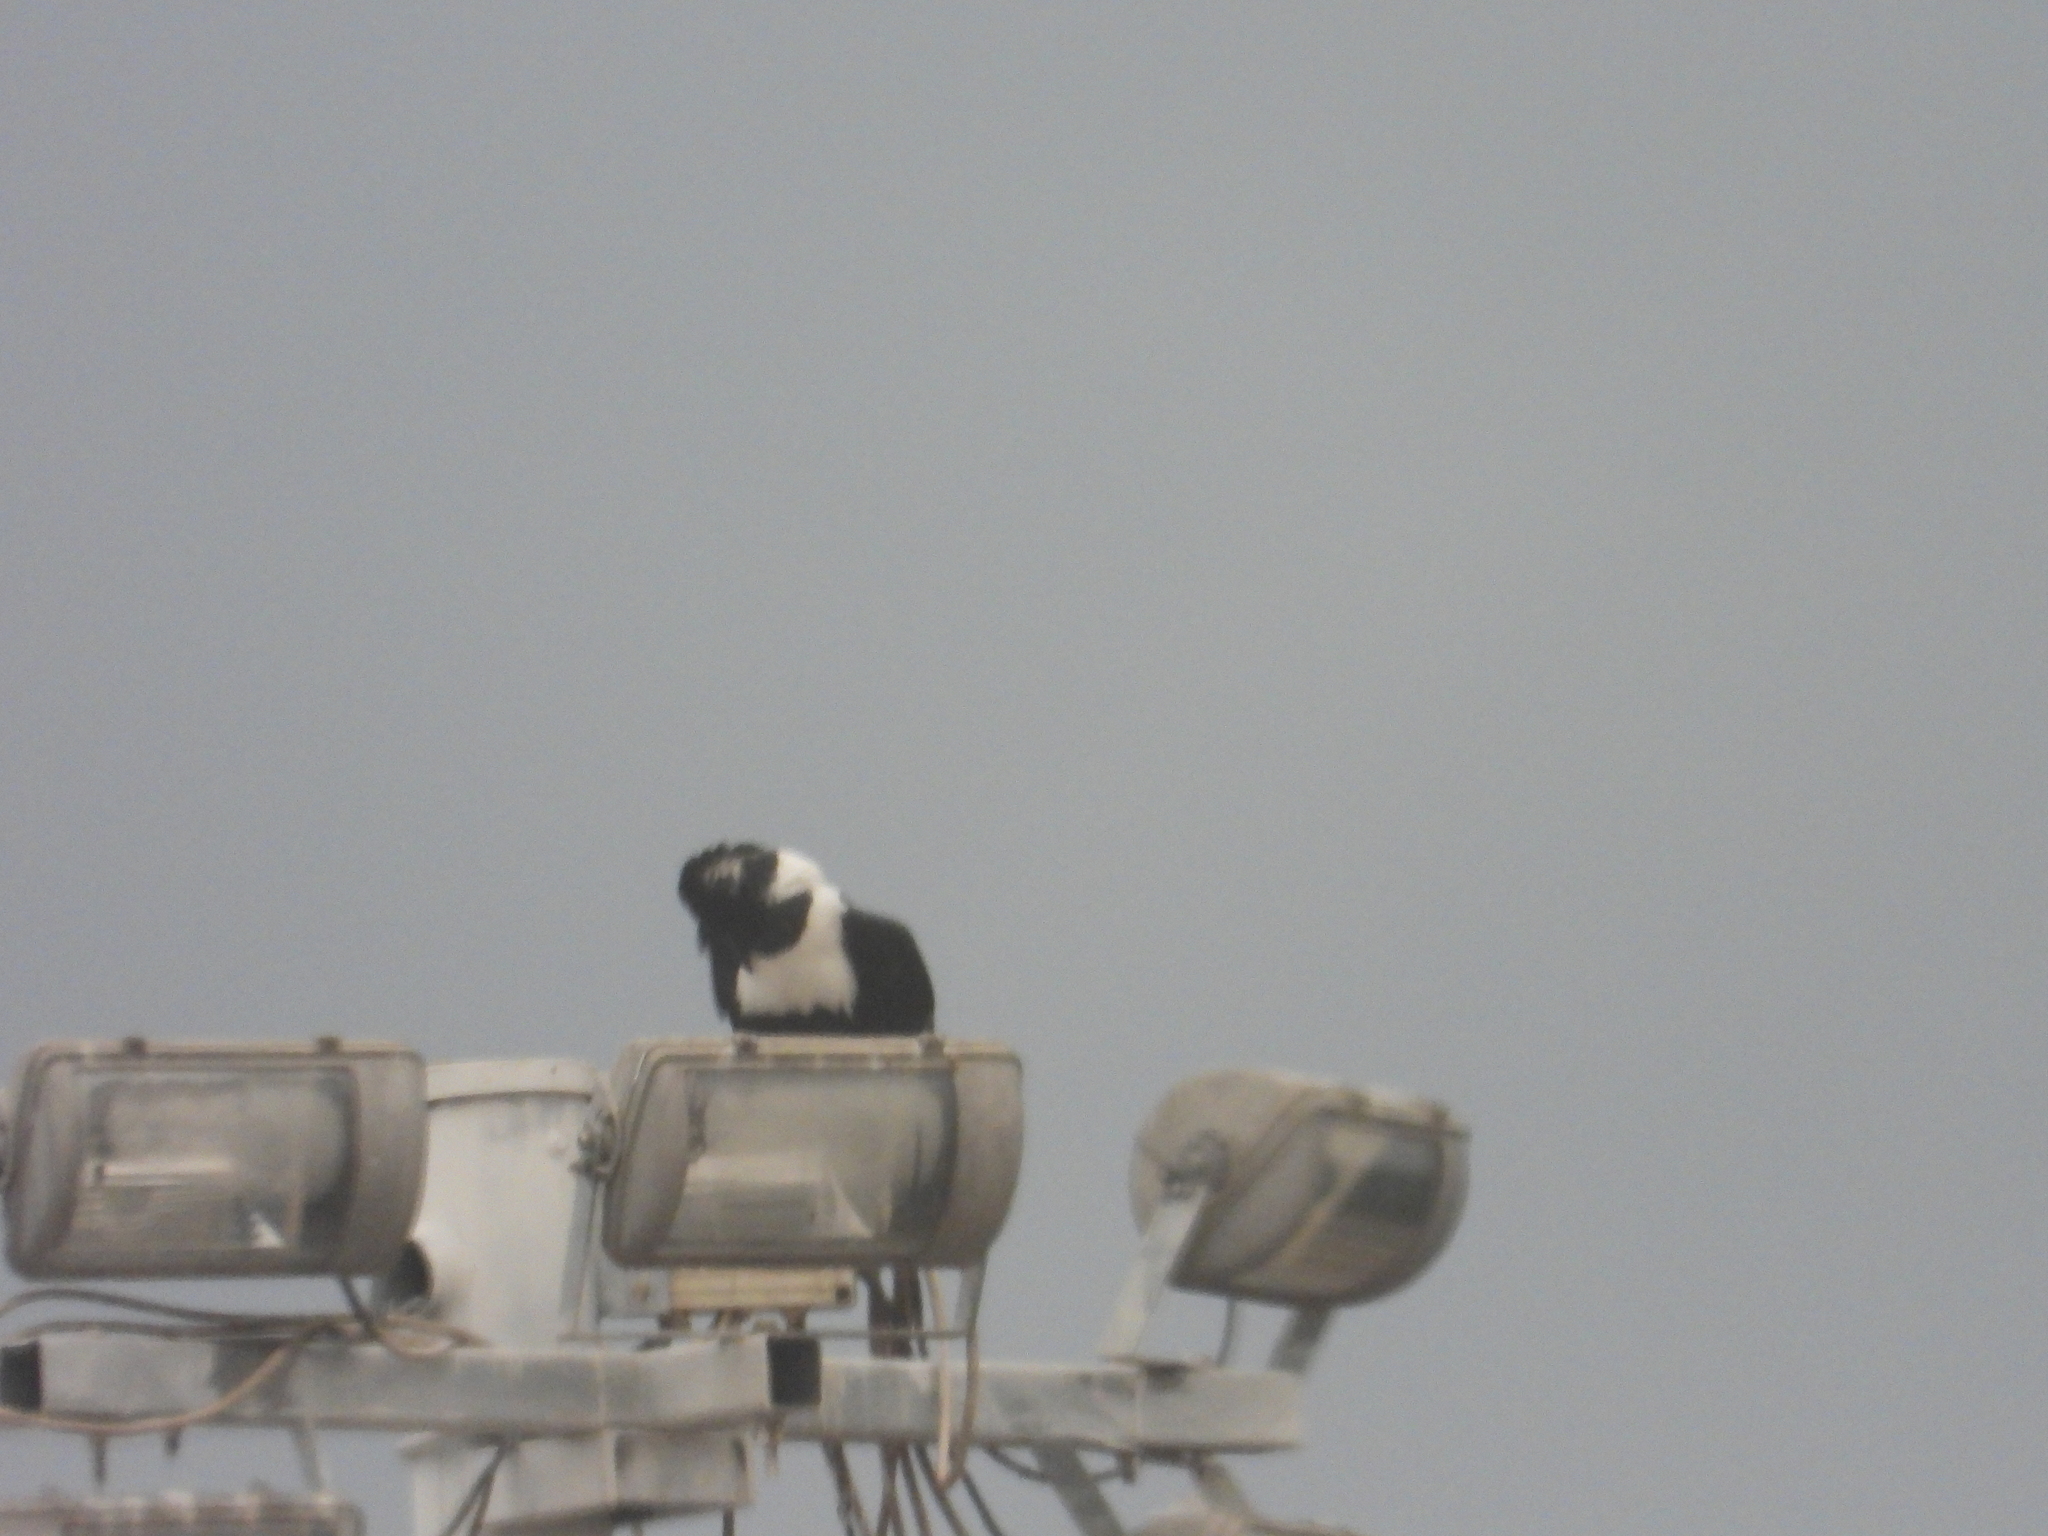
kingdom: Animalia
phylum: Chordata
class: Aves
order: Passeriformes
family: Corvidae
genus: Corvus
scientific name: Corvus albus
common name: Pied crow
